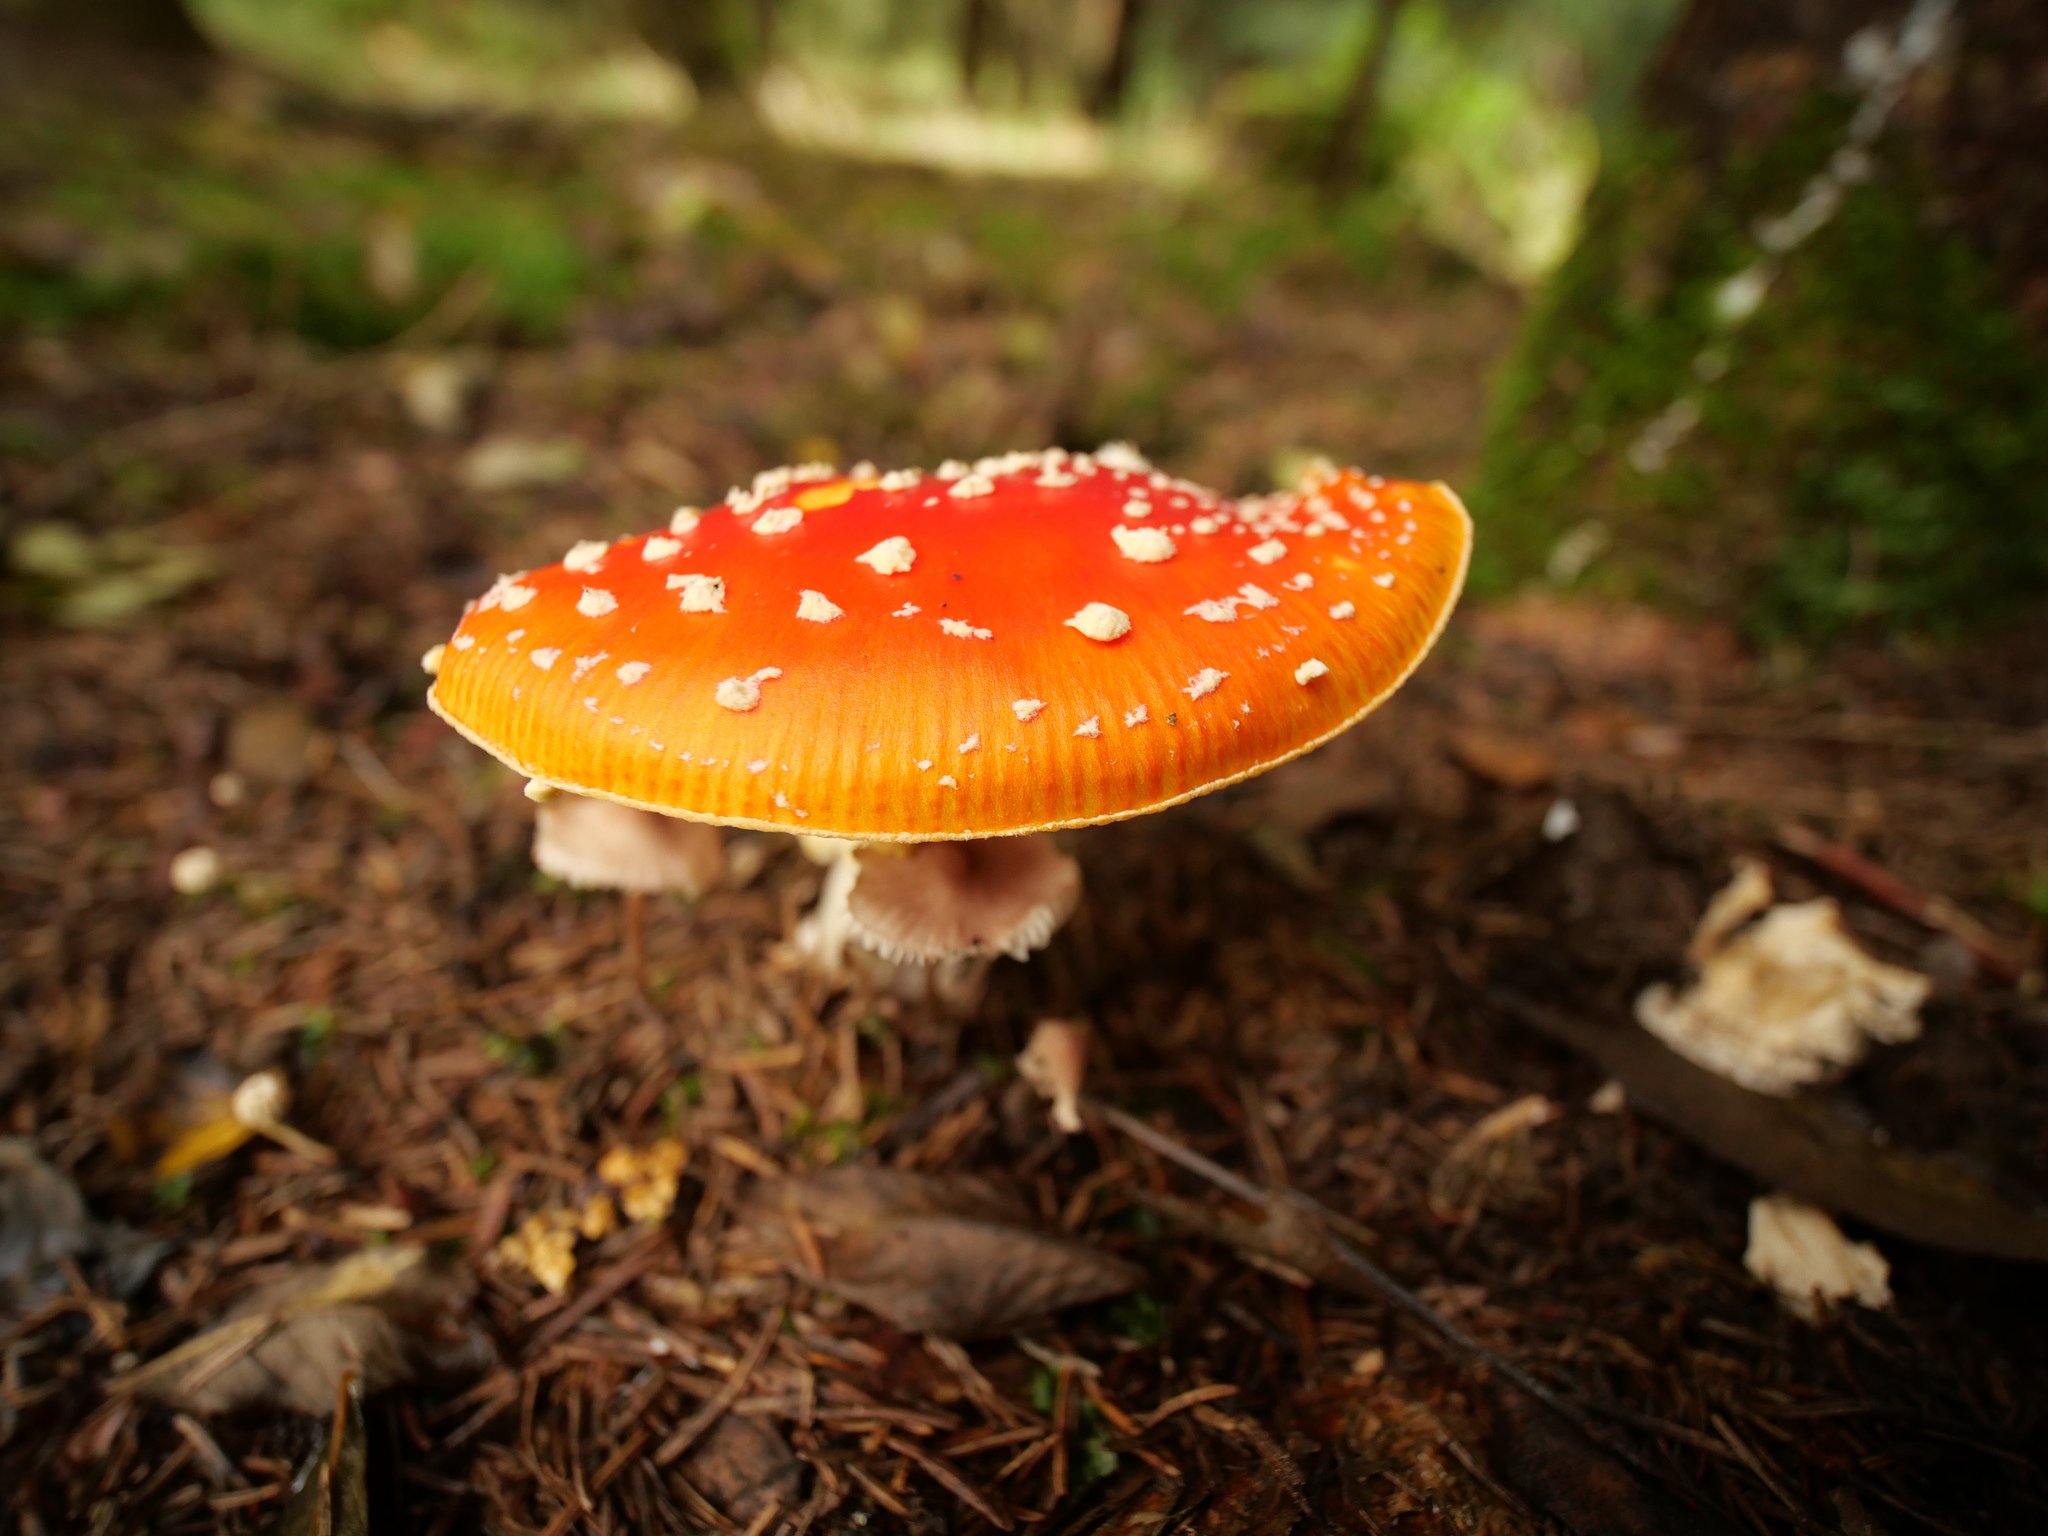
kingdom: Fungi
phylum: Basidiomycota
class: Agaricomycetes
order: Agaricales
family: Amanitaceae
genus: Amanita
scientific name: Amanita muscaria
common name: Fly agaric
